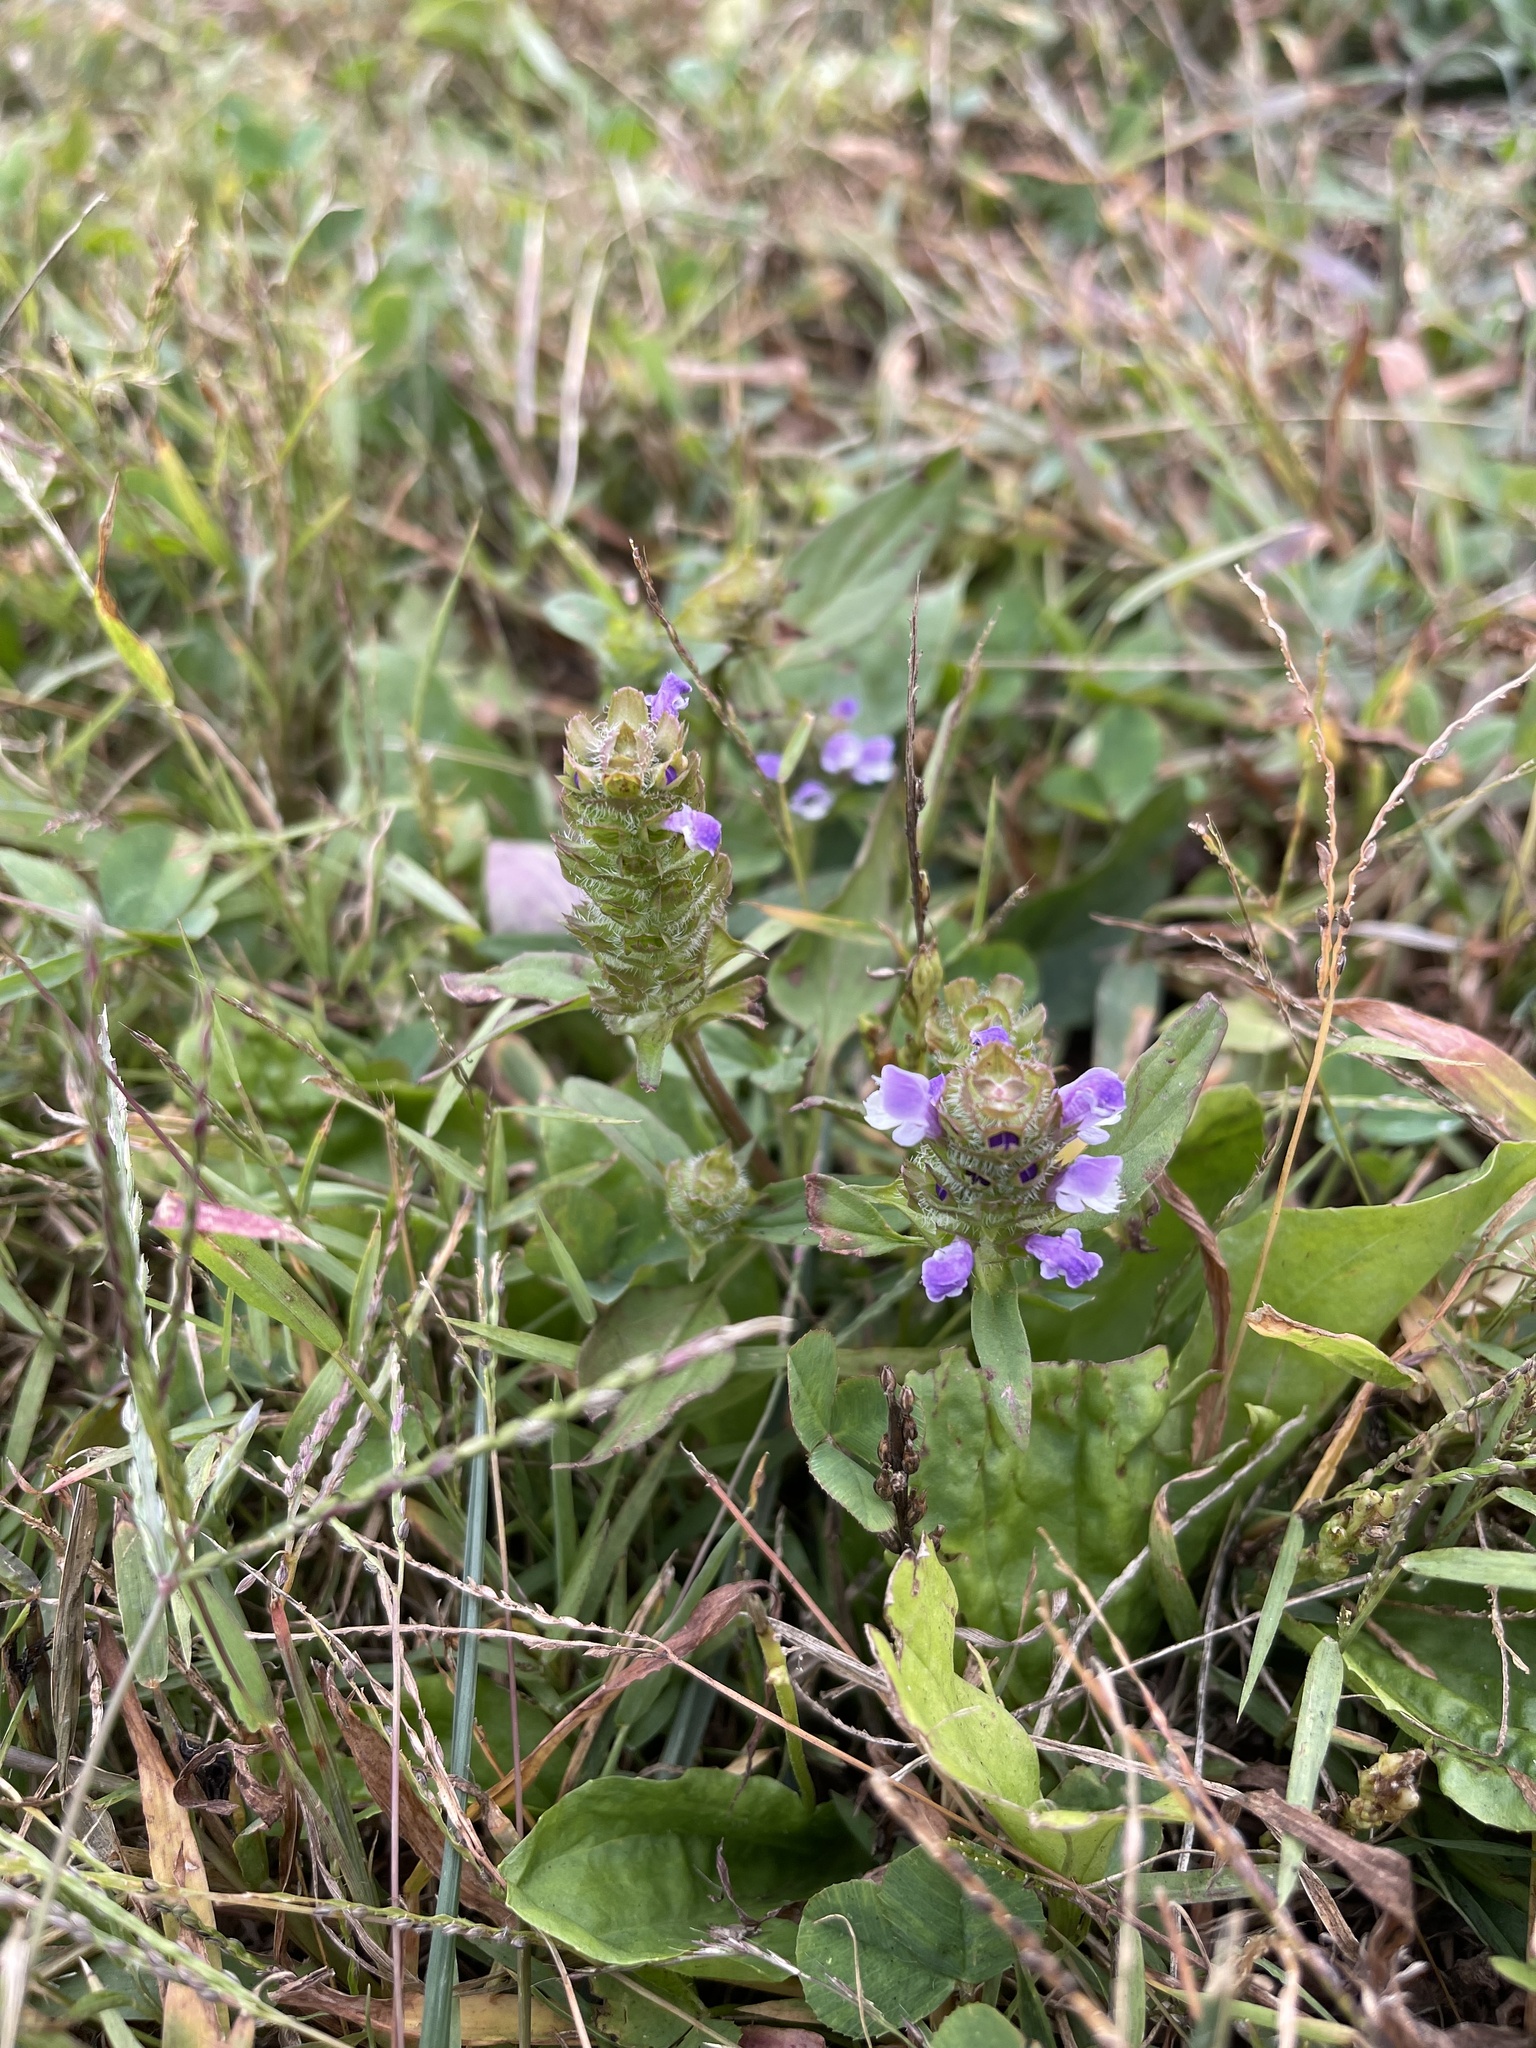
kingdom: Plantae
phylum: Tracheophyta
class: Magnoliopsida
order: Lamiales
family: Lamiaceae
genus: Prunella
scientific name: Prunella vulgaris
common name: Heal-all
